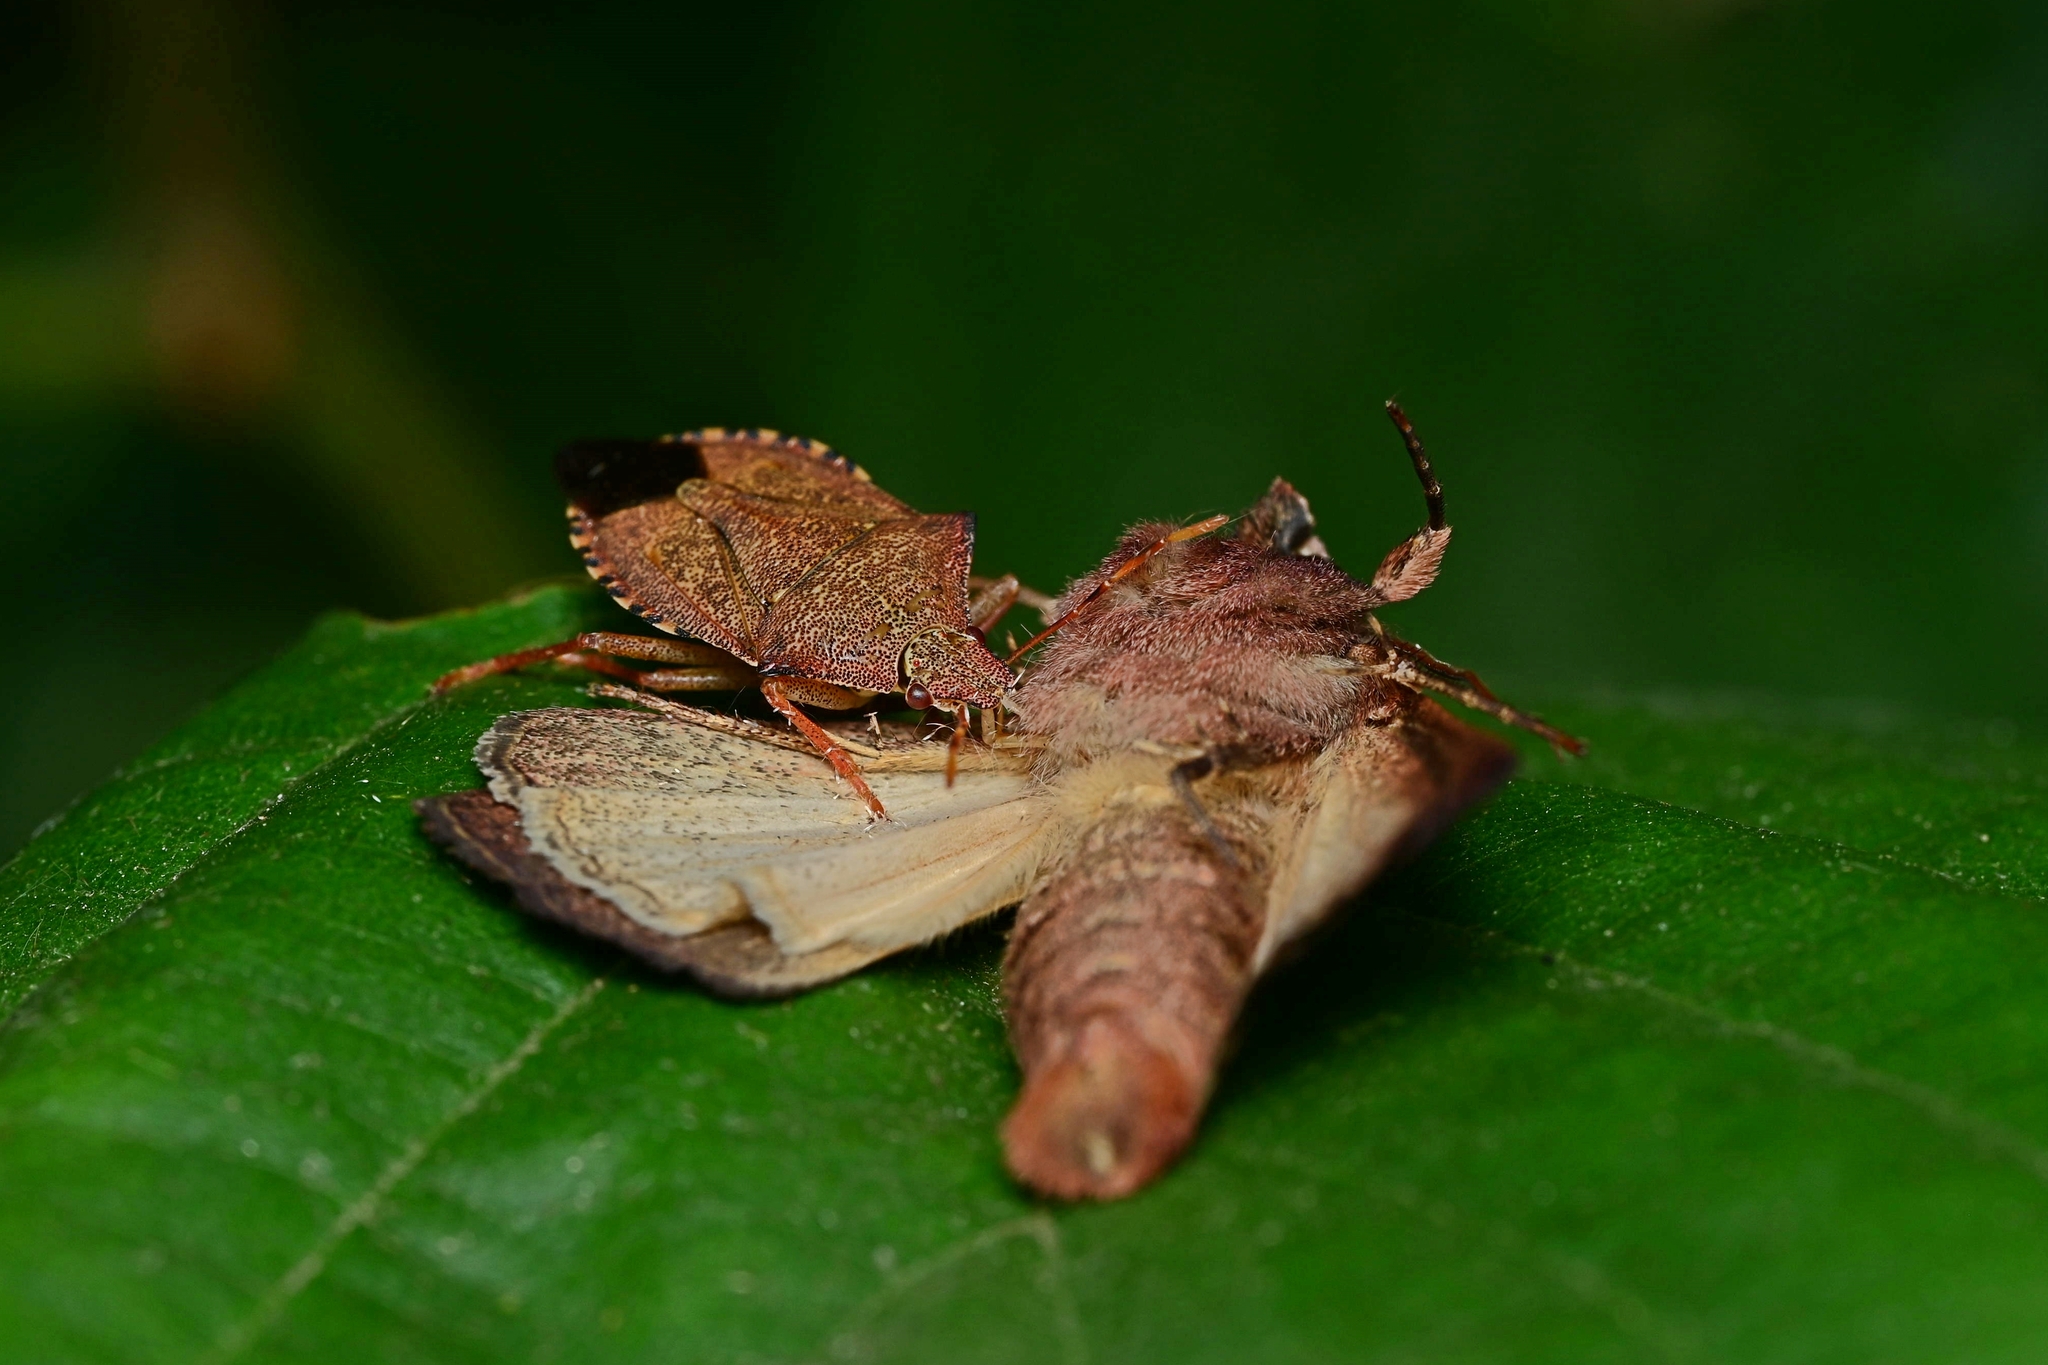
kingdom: Animalia
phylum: Arthropoda
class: Insecta
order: Hemiptera
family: Pentatomidae
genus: Arma
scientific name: Arma custos
